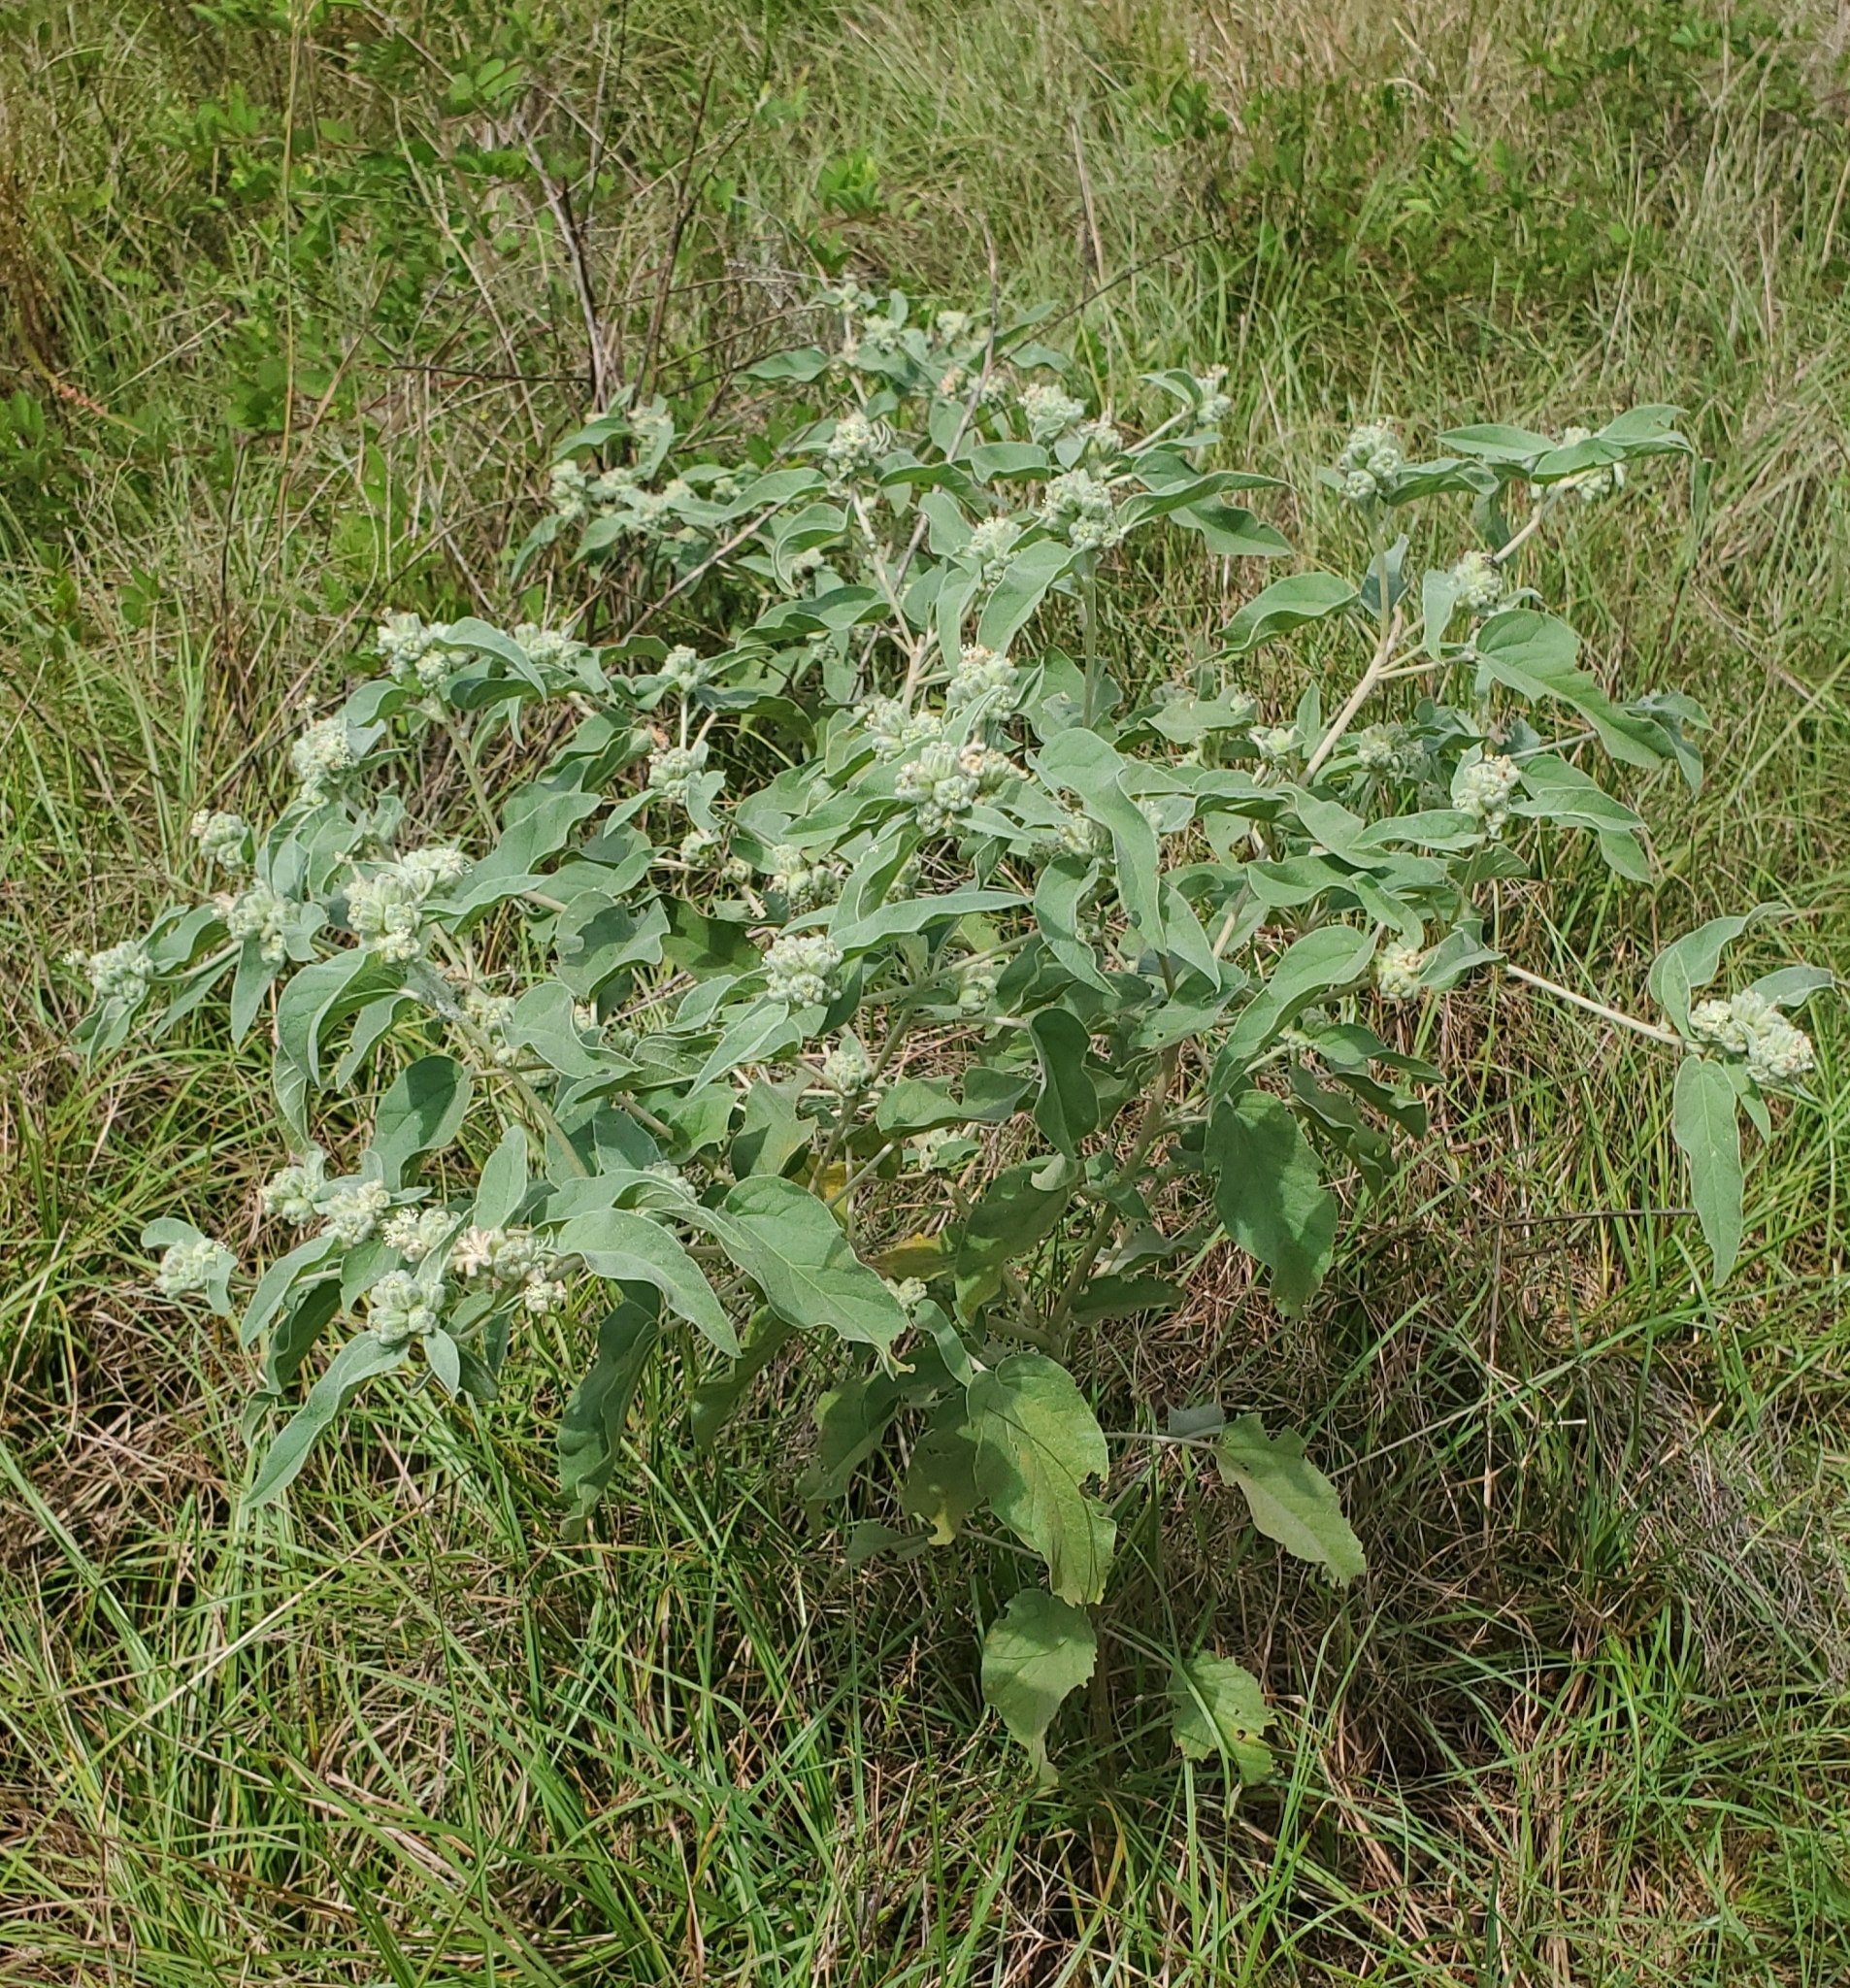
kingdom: Plantae
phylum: Tracheophyta
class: Magnoliopsida
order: Malpighiales
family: Euphorbiaceae
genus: Croton
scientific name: Croton lindheimeri
